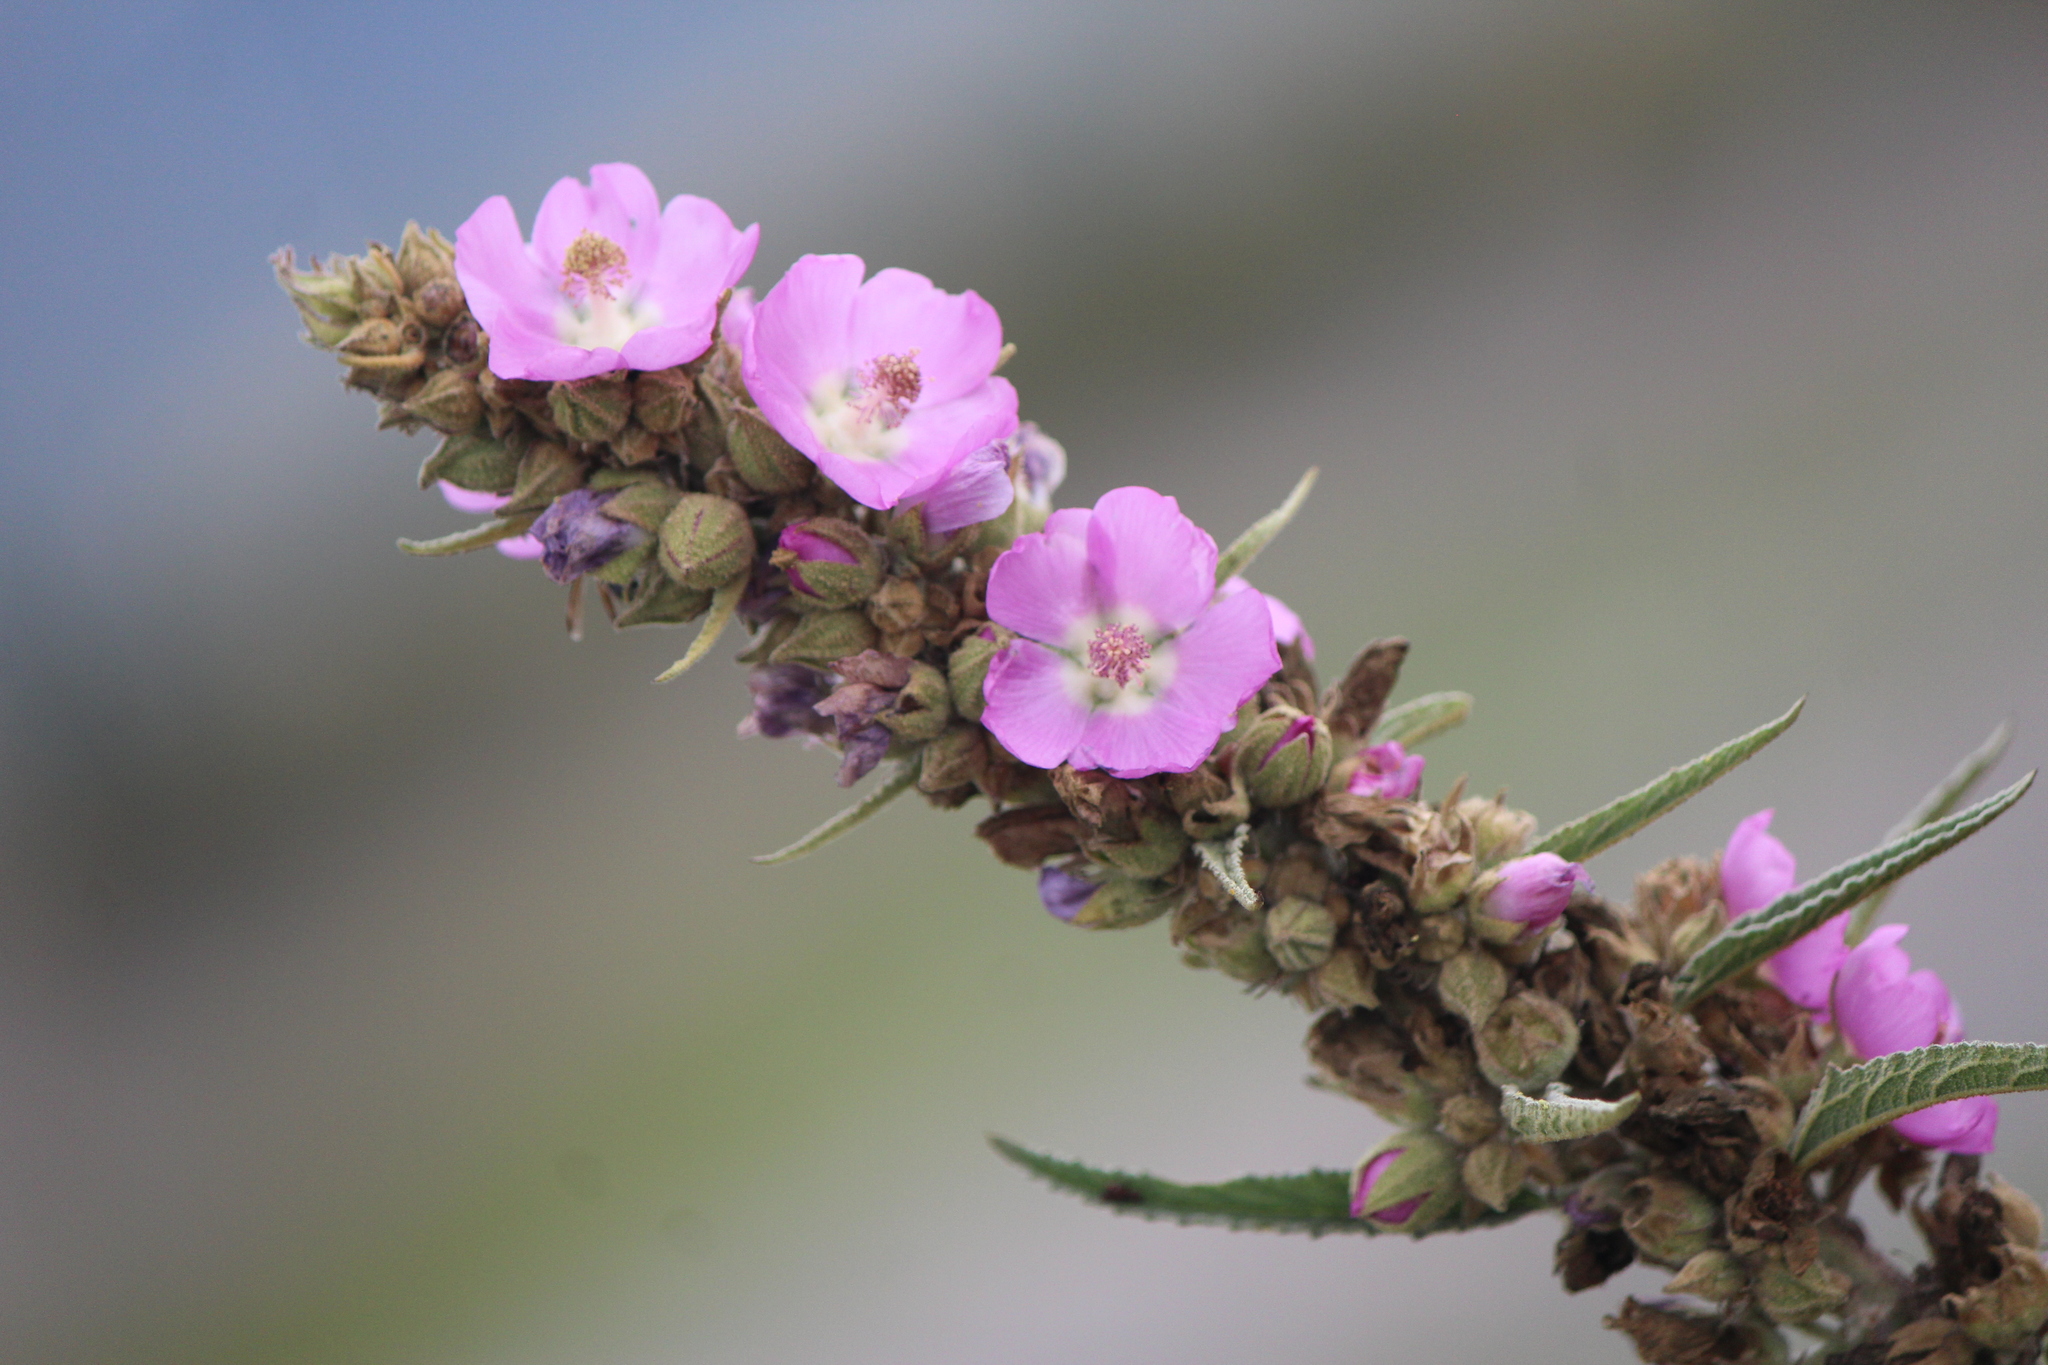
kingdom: Plantae
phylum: Tracheophyta
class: Magnoliopsida
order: Malvales
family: Malvaceae
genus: Sphaeralcea
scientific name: Sphaeralcea angustifolia
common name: Copper globe-mallow
